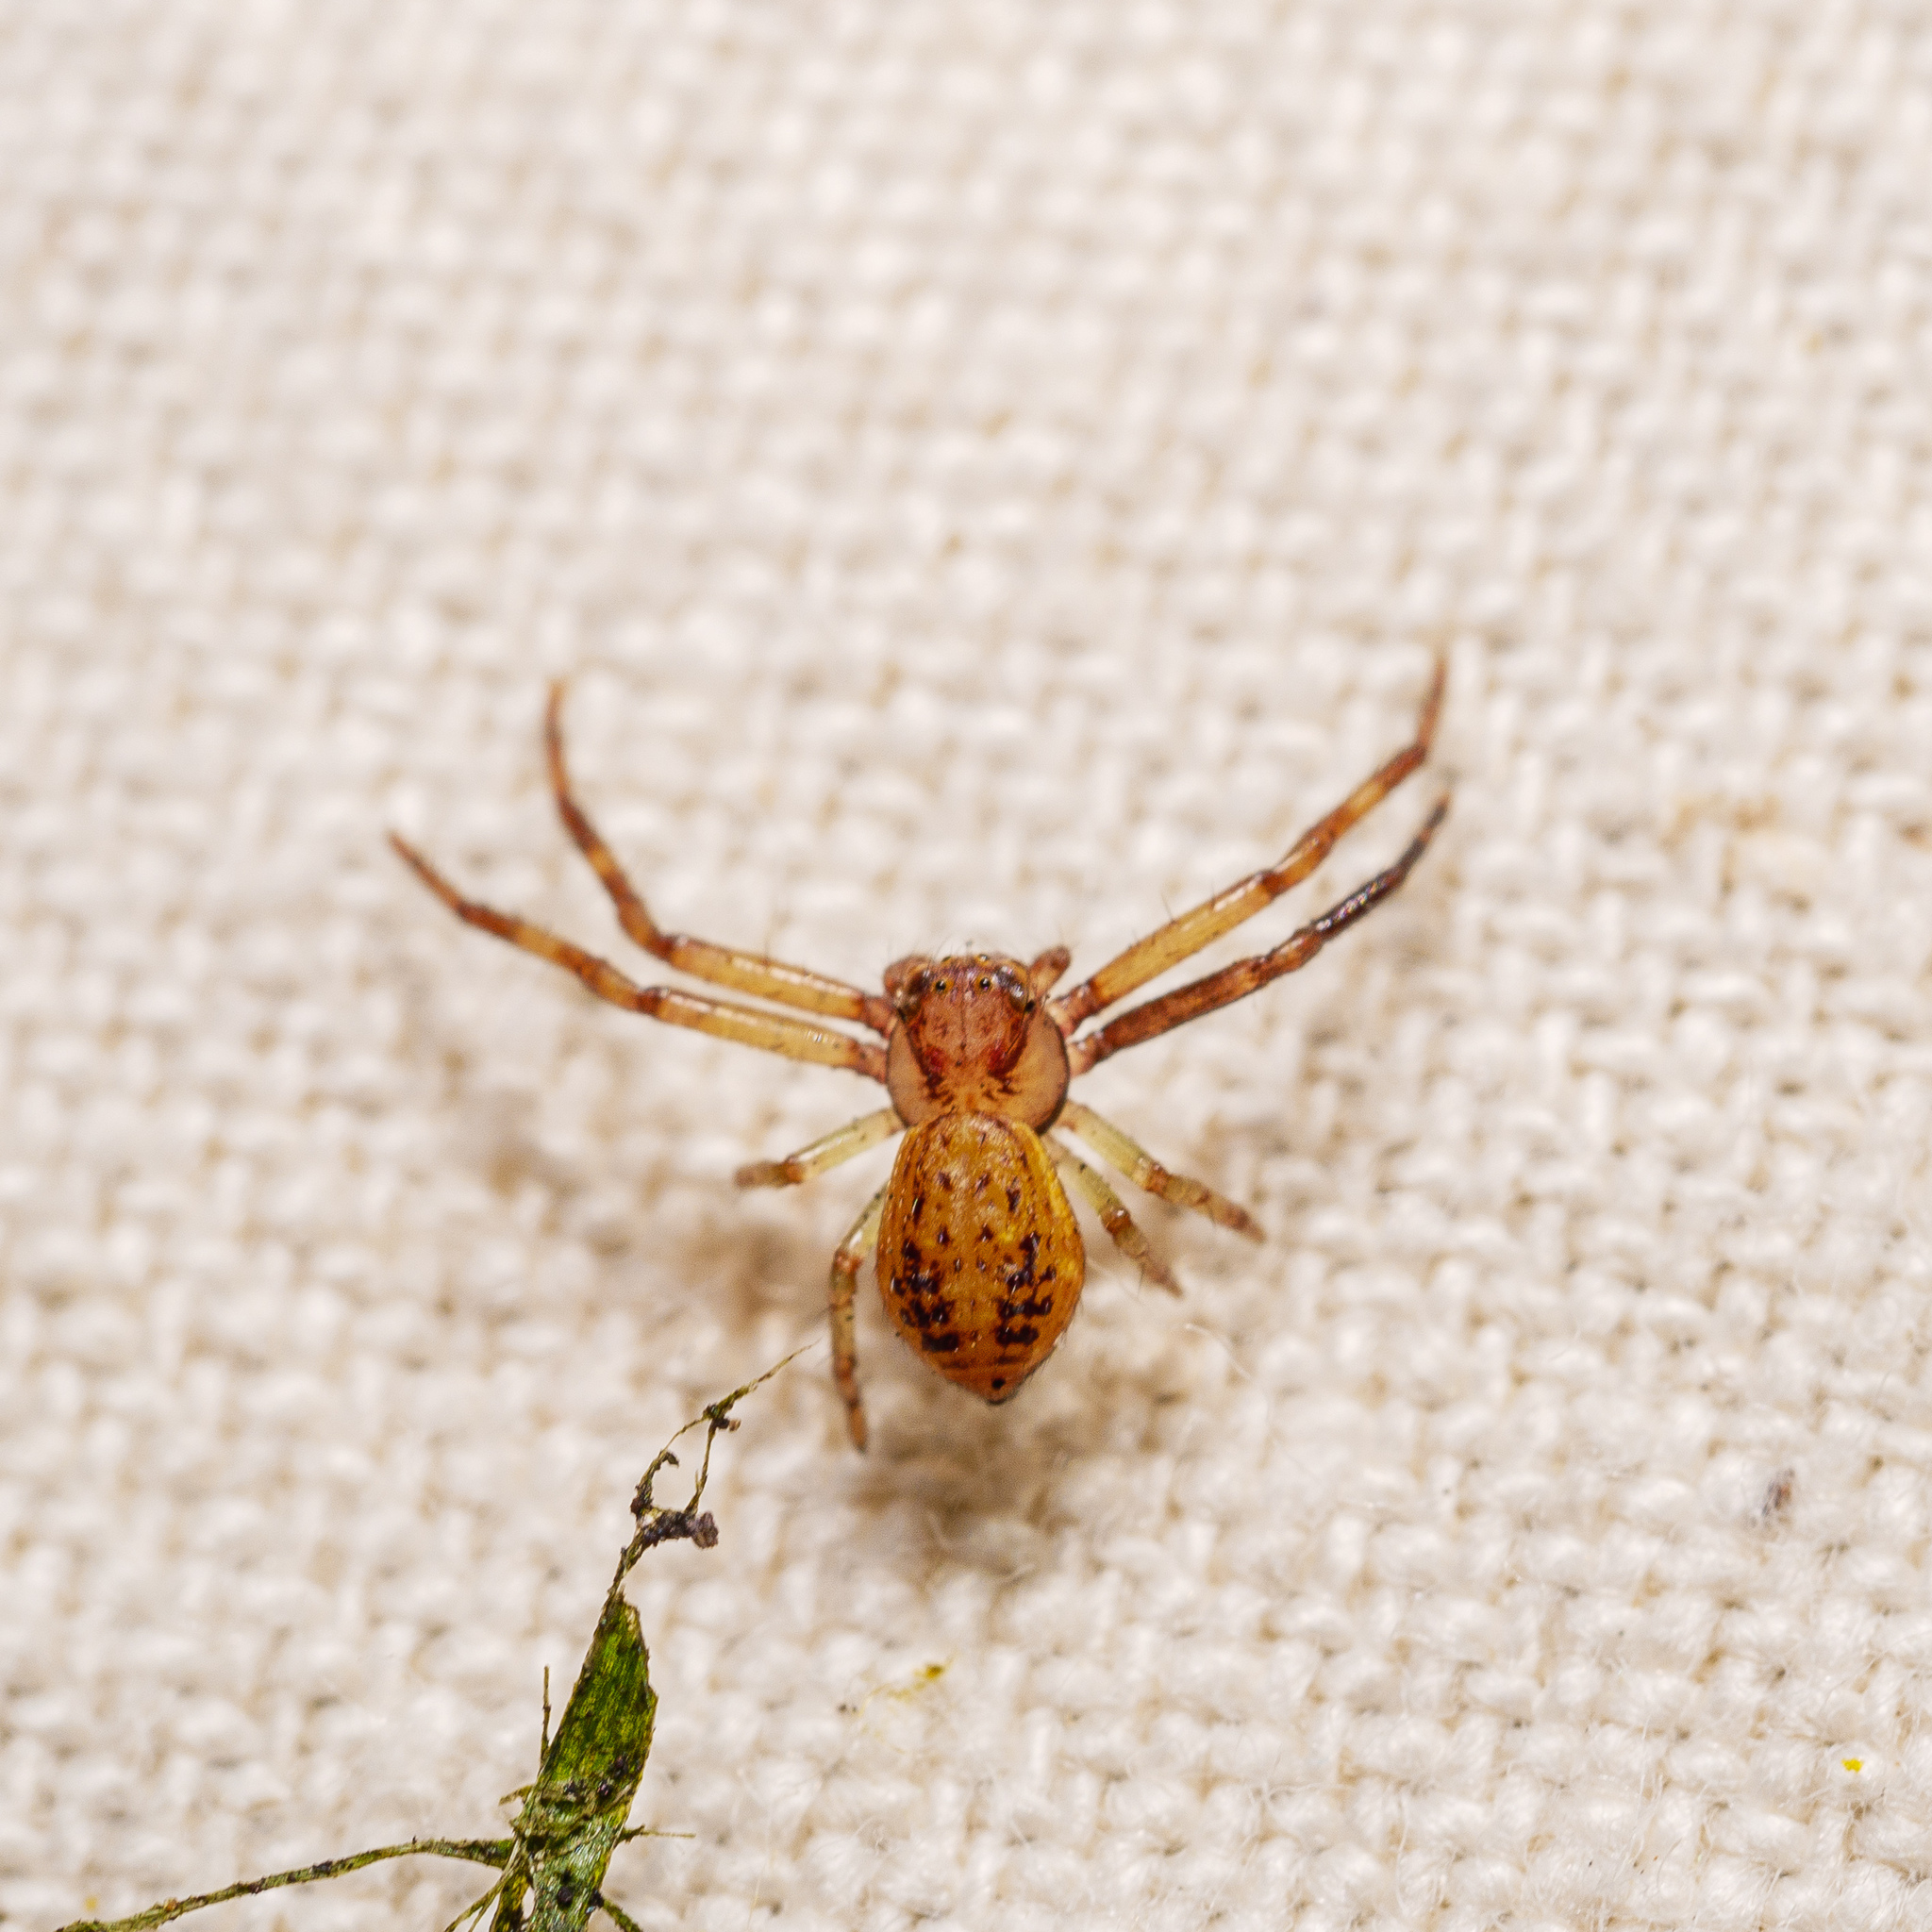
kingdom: Animalia
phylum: Arthropoda
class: Arachnida
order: Araneae
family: Thomisidae
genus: Diaea
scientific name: Diaea ambara
